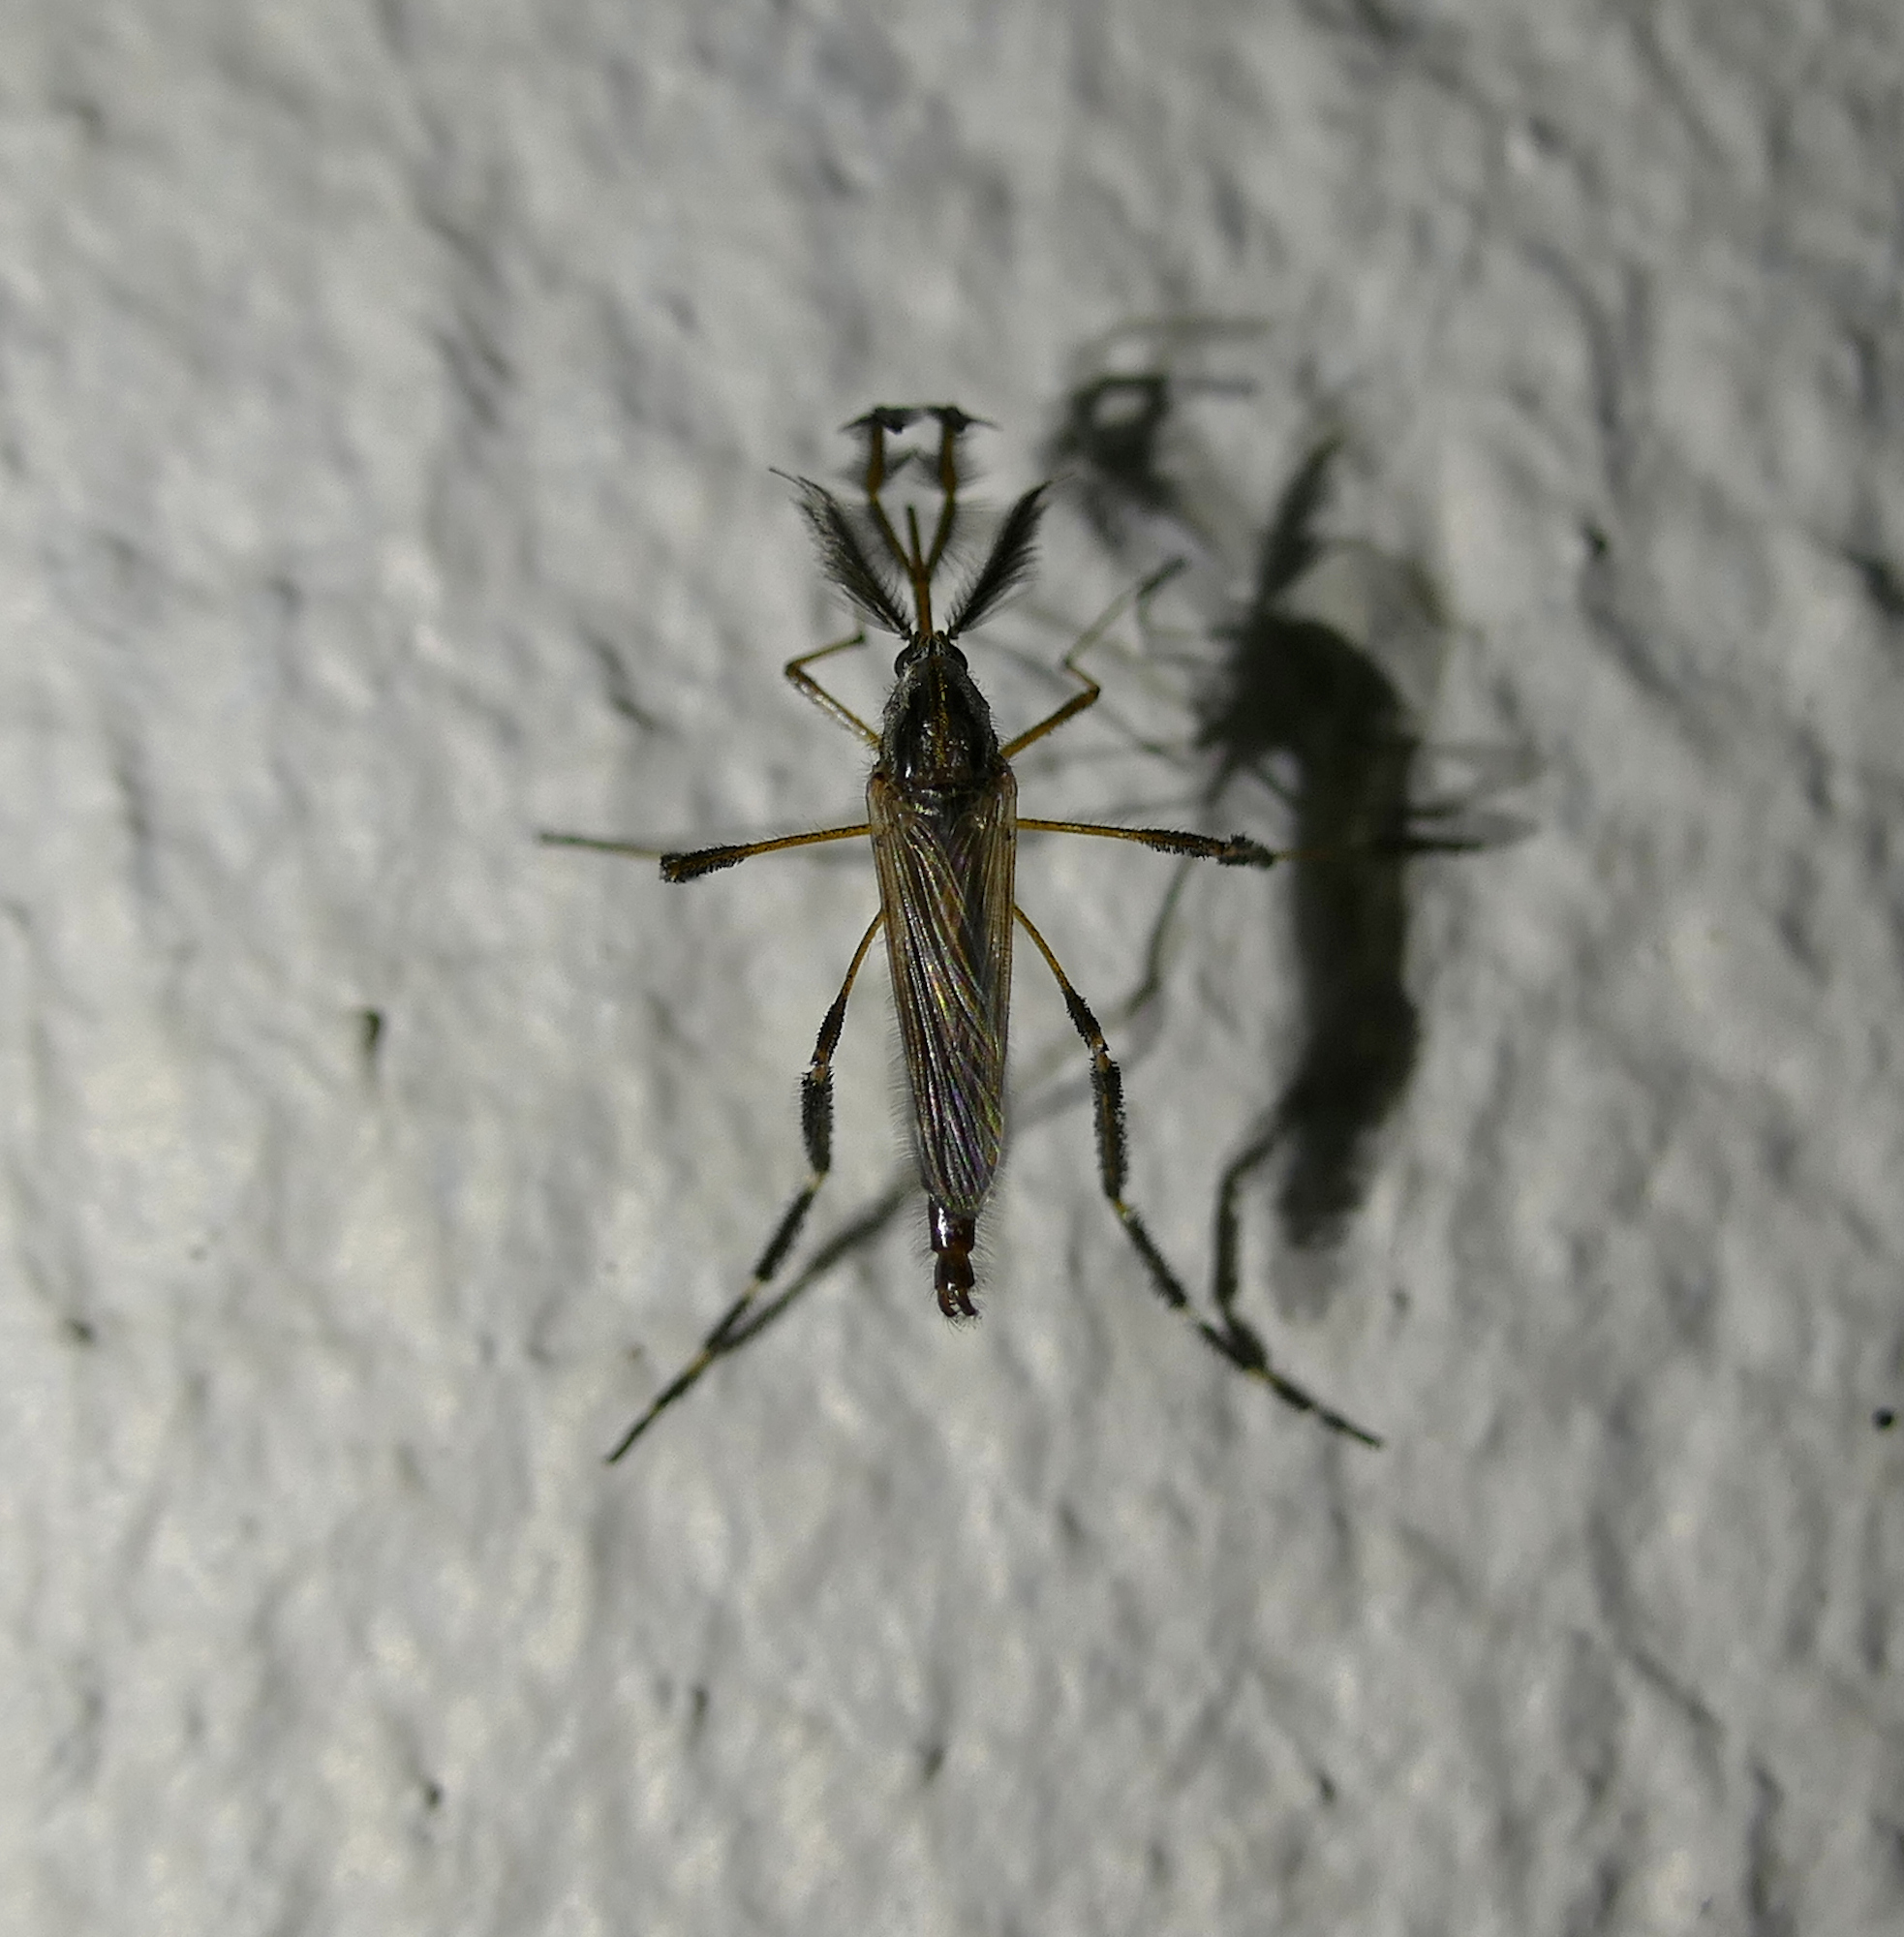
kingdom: Animalia
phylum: Arthropoda
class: Insecta
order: Diptera
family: Culicidae
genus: Psorophora
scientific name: Psorophora ciliata
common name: Gallinipper
